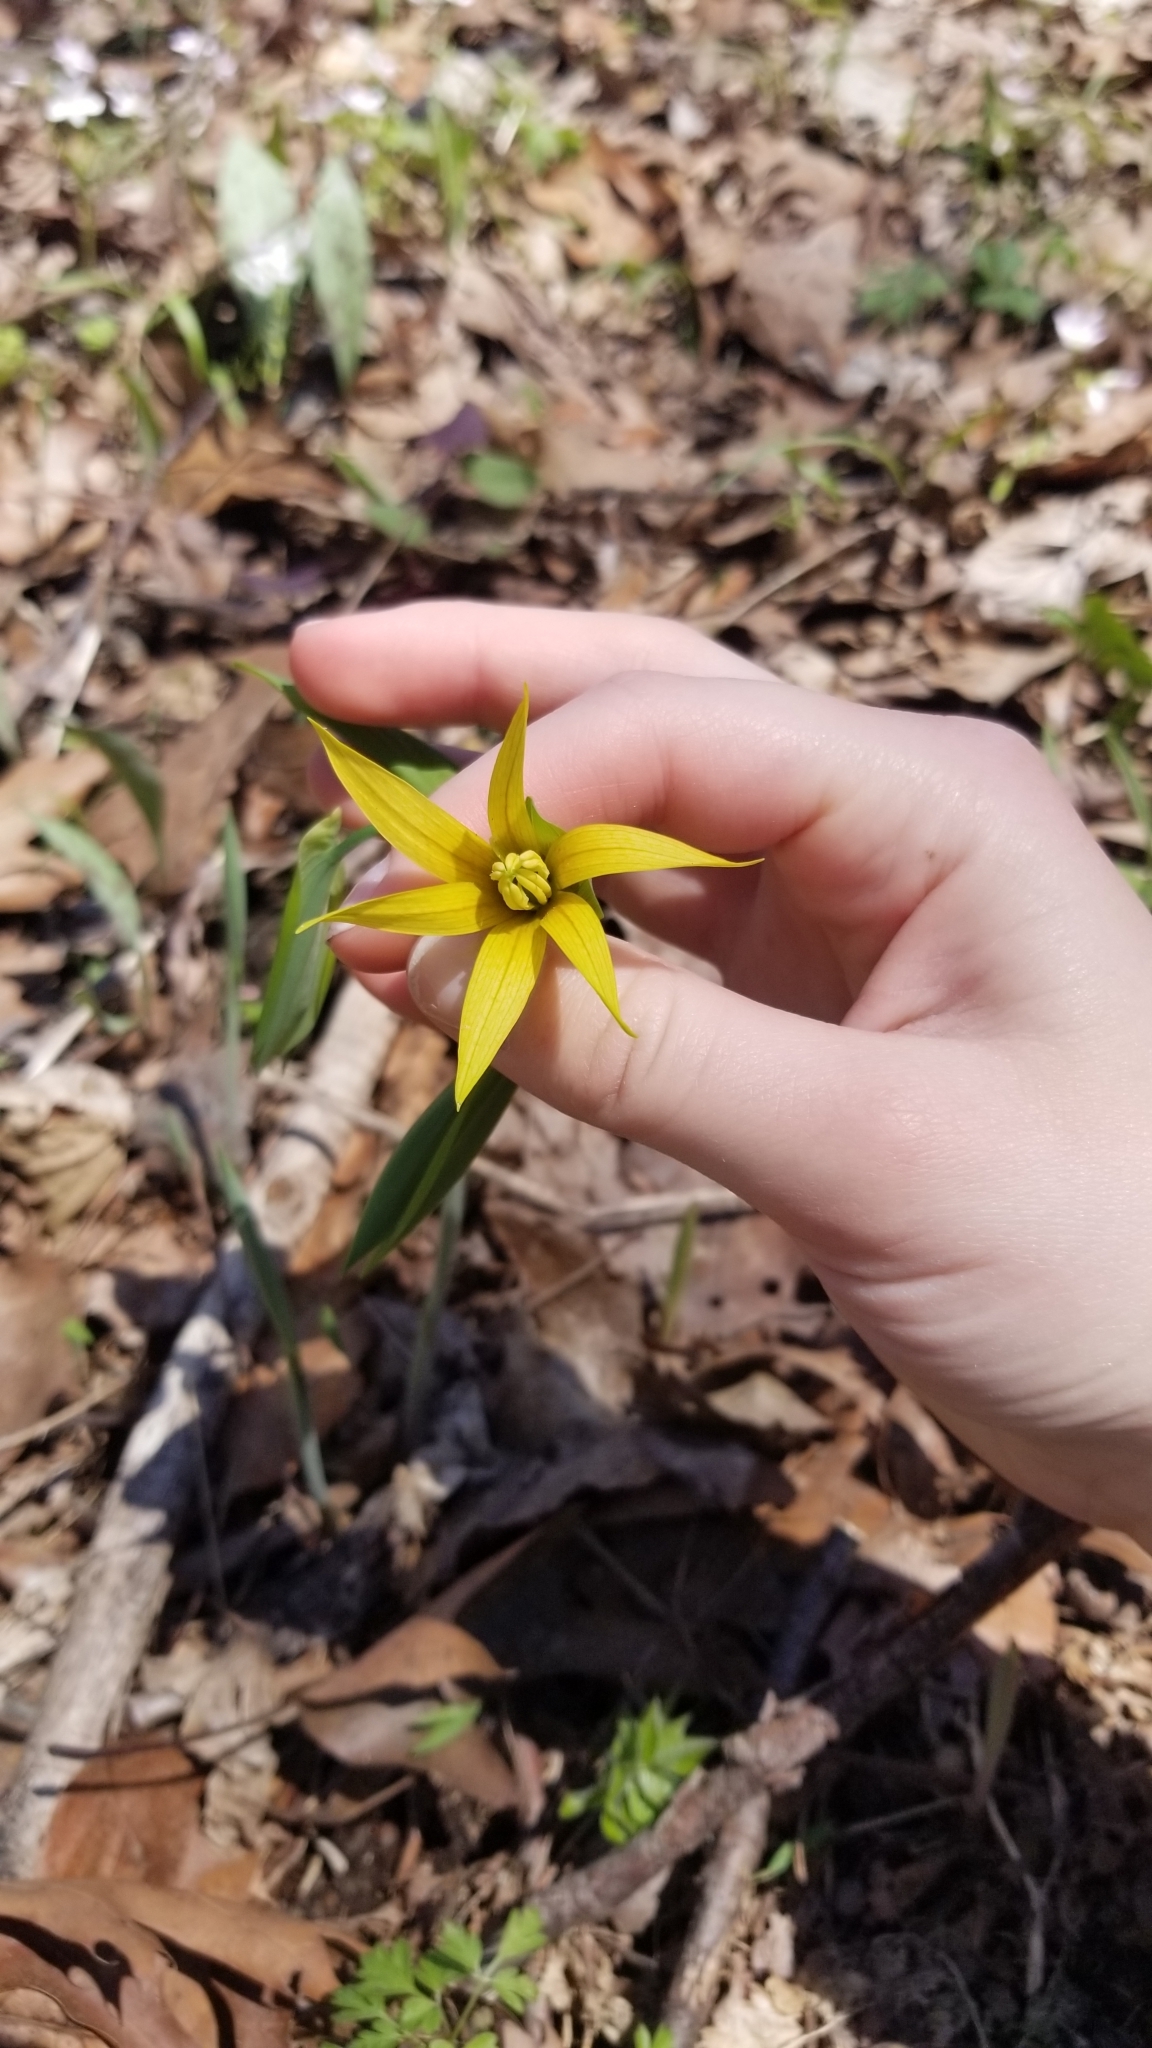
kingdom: Plantae
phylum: Tracheophyta
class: Liliopsida
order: Liliales
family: Colchicaceae
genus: Uvularia
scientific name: Uvularia grandiflora
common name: Bellwort
